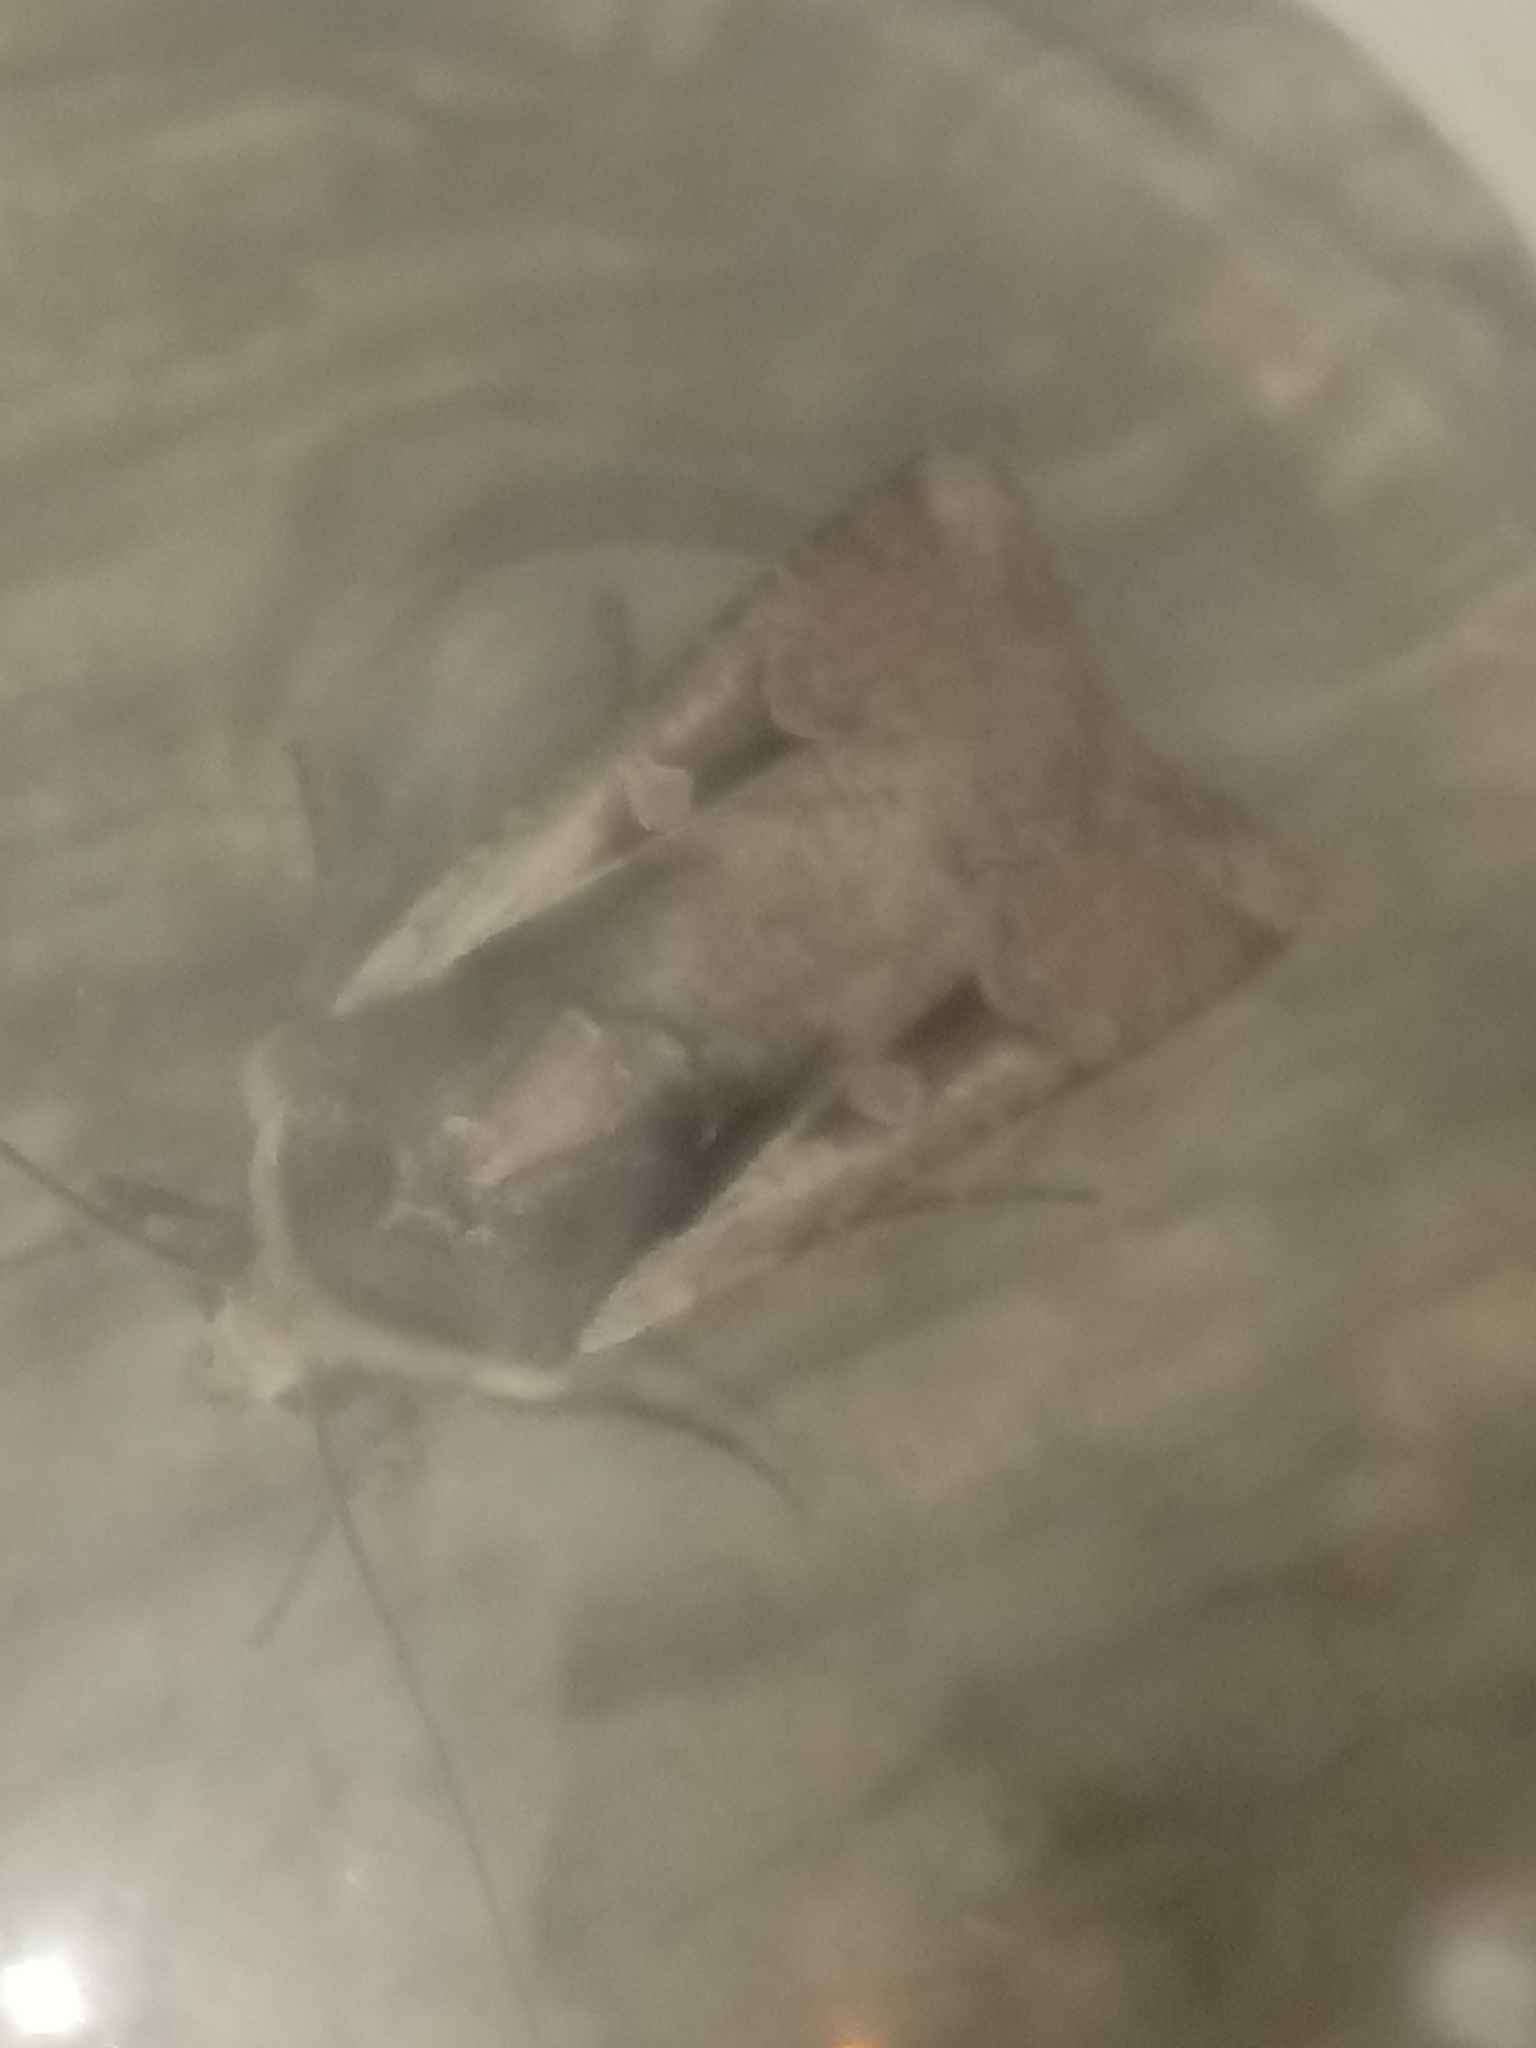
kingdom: Animalia
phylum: Arthropoda
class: Insecta
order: Lepidoptera
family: Noctuidae
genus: Hemieuxoa
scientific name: Hemieuxoa rudens
